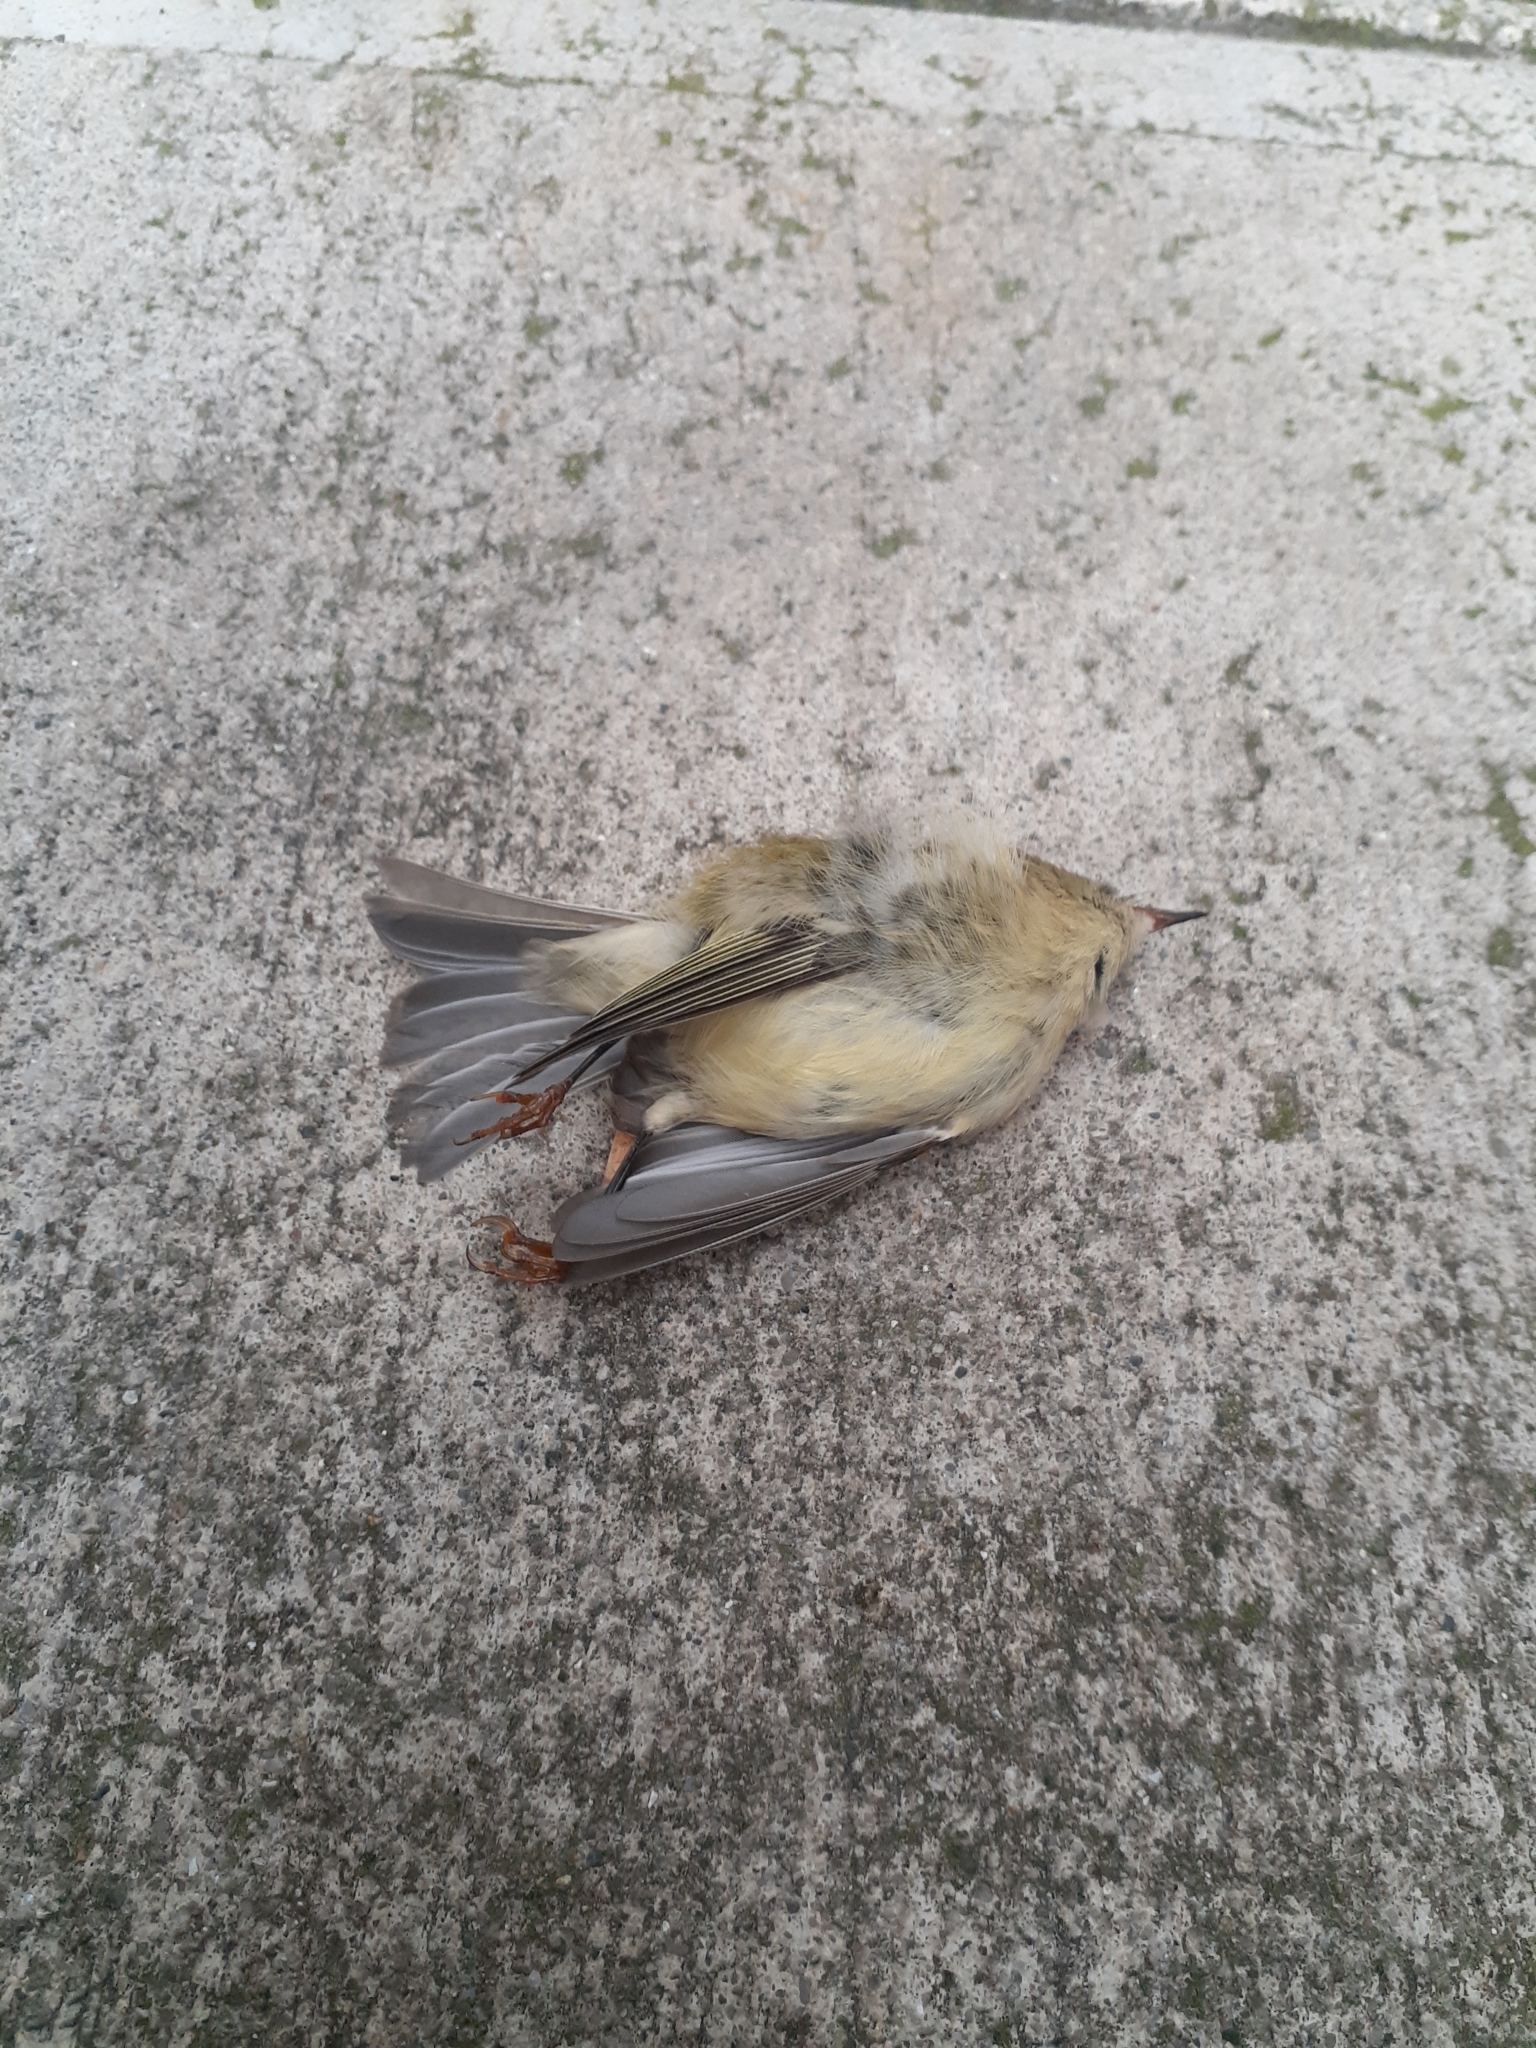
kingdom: Animalia
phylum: Chordata
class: Aves
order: Passeriformes
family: Regulidae
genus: Regulus
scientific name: Regulus calendula
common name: Ruby-crowned kinglet
